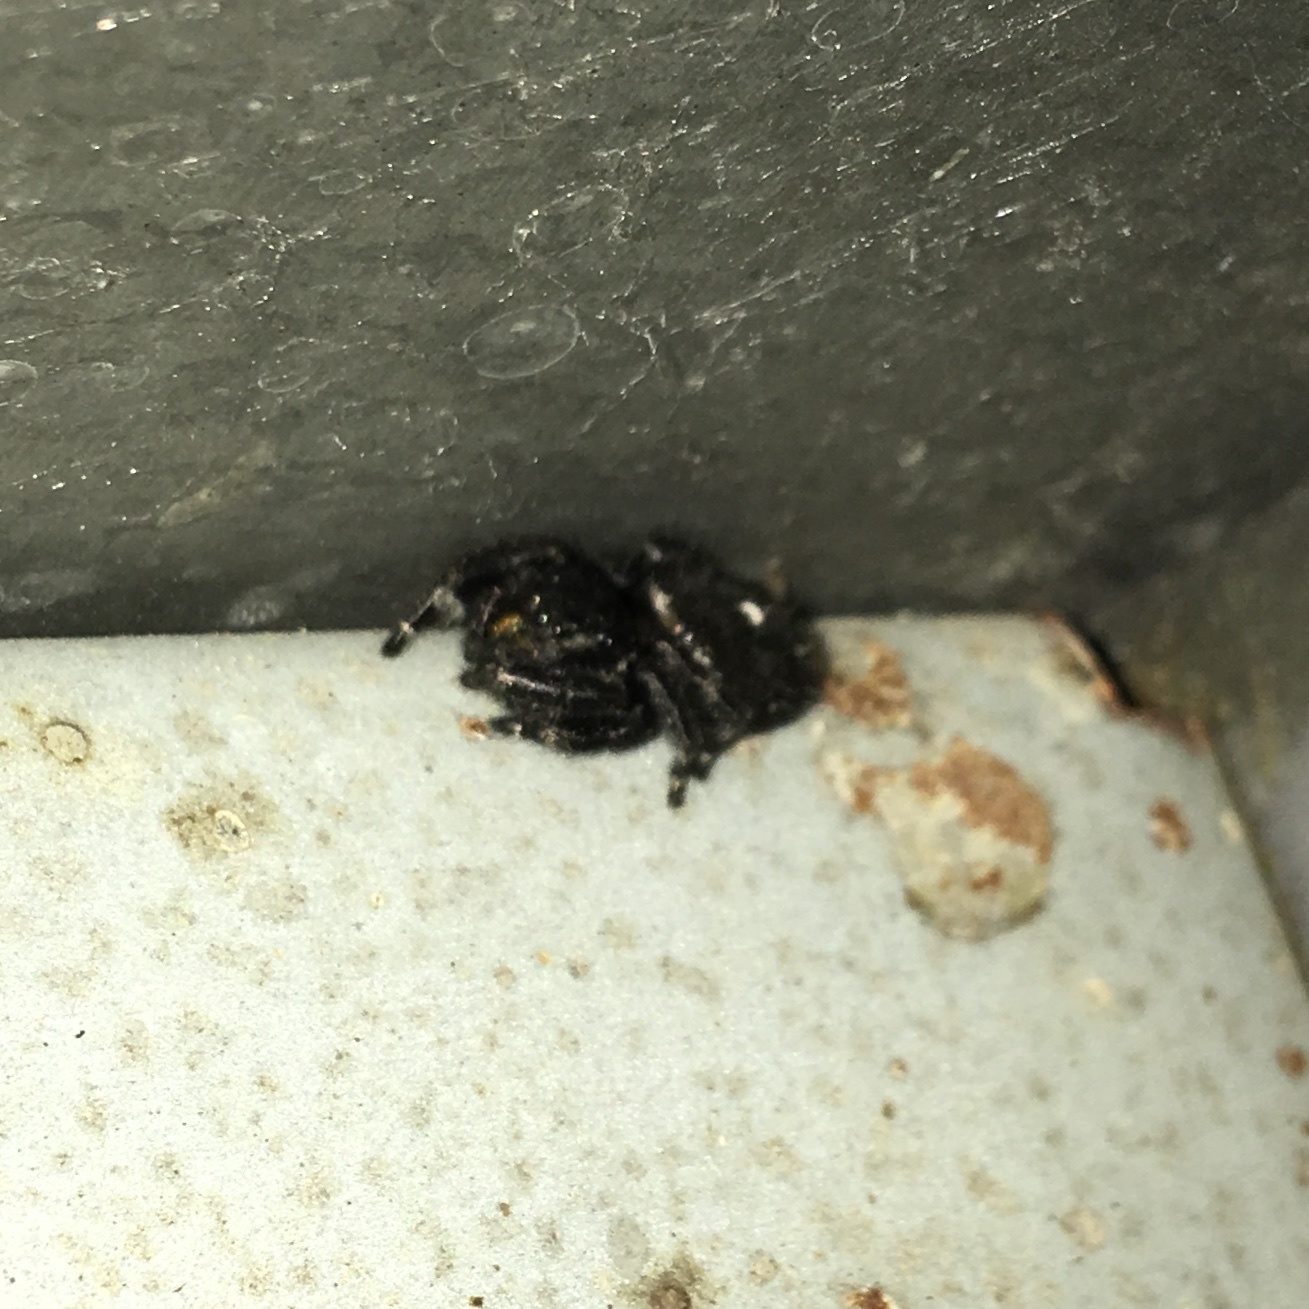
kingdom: Animalia
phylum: Arthropoda
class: Arachnida
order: Araneae
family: Salticidae
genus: Phidippus
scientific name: Phidippus audax
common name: Bold jumper
